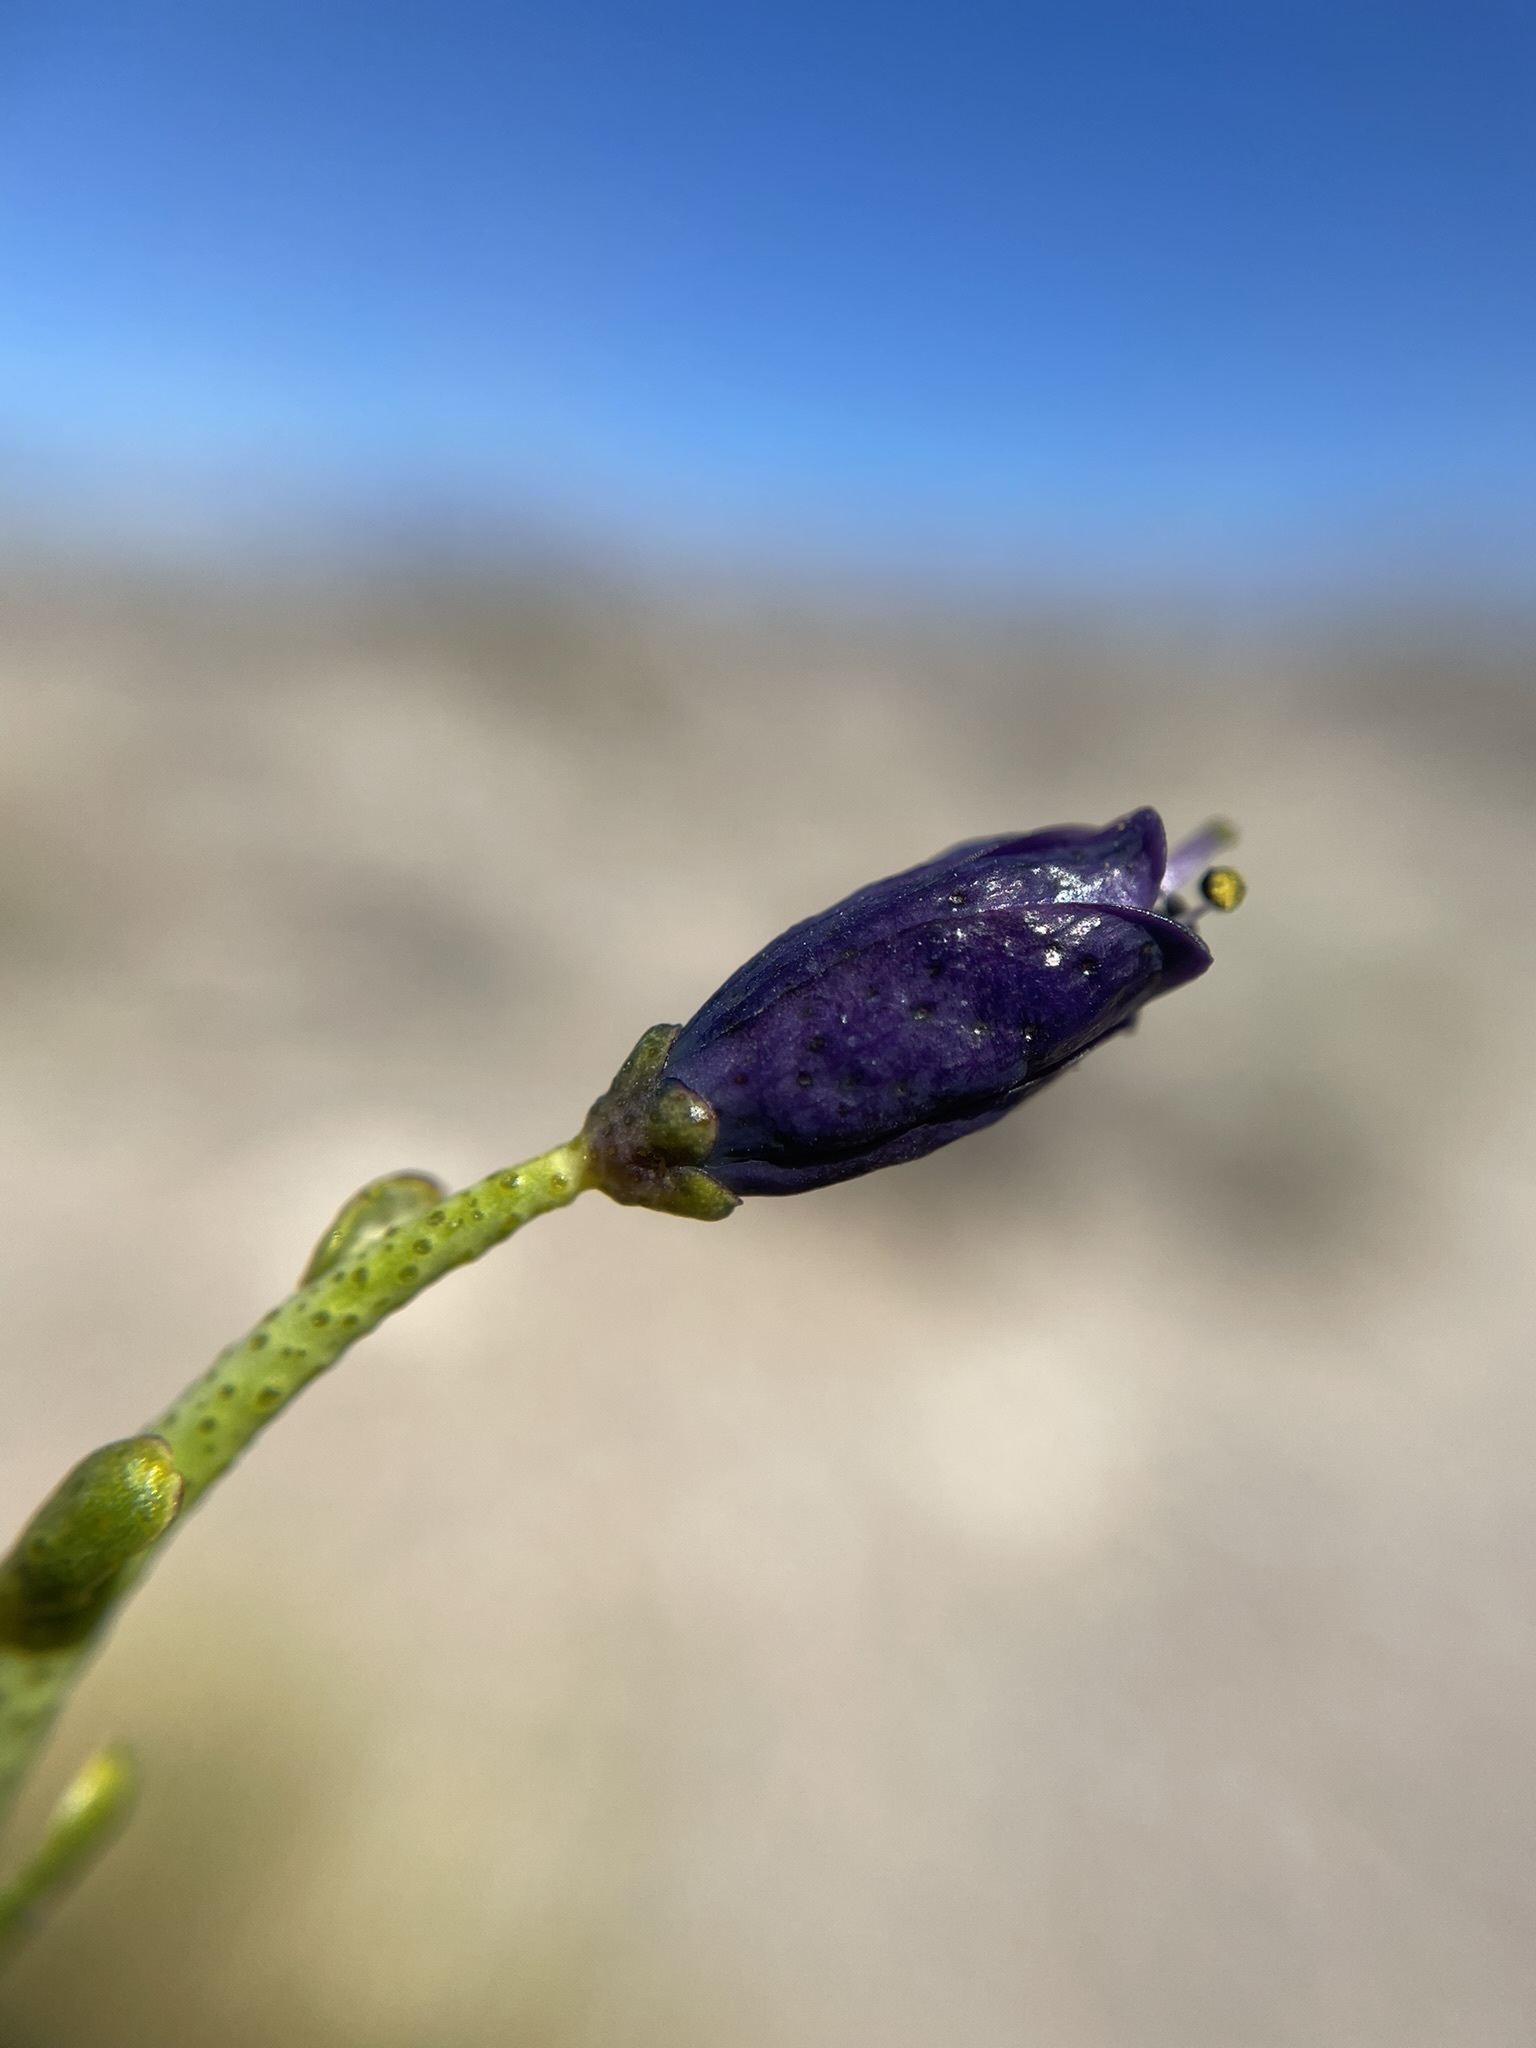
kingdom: Plantae
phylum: Tracheophyta
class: Magnoliopsida
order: Sapindales
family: Rutaceae
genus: Thamnosma
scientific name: Thamnosma montana
